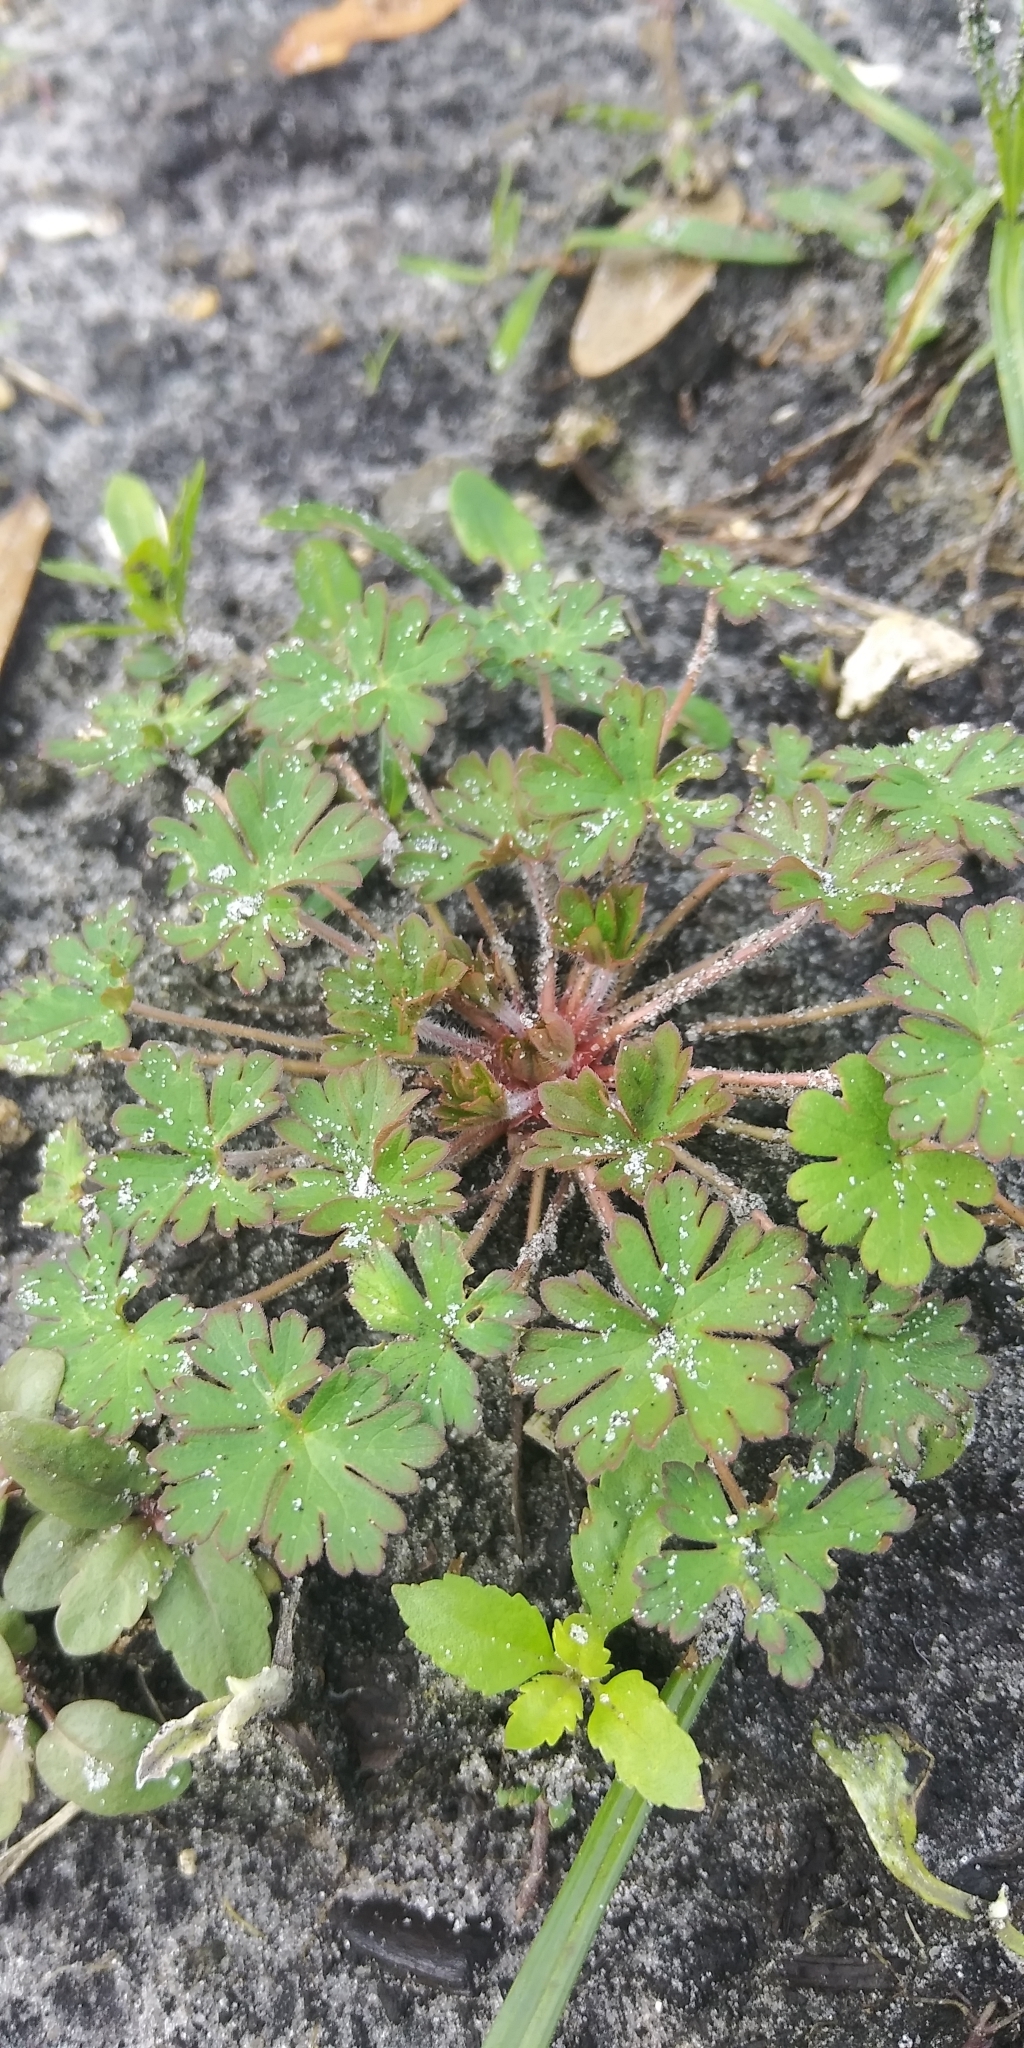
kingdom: Plantae
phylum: Tracheophyta
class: Magnoliopsida
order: Geraniales
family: Geraniaceae
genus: Geranium
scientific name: Geranium carolinianum
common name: Carolina crane's-bill
